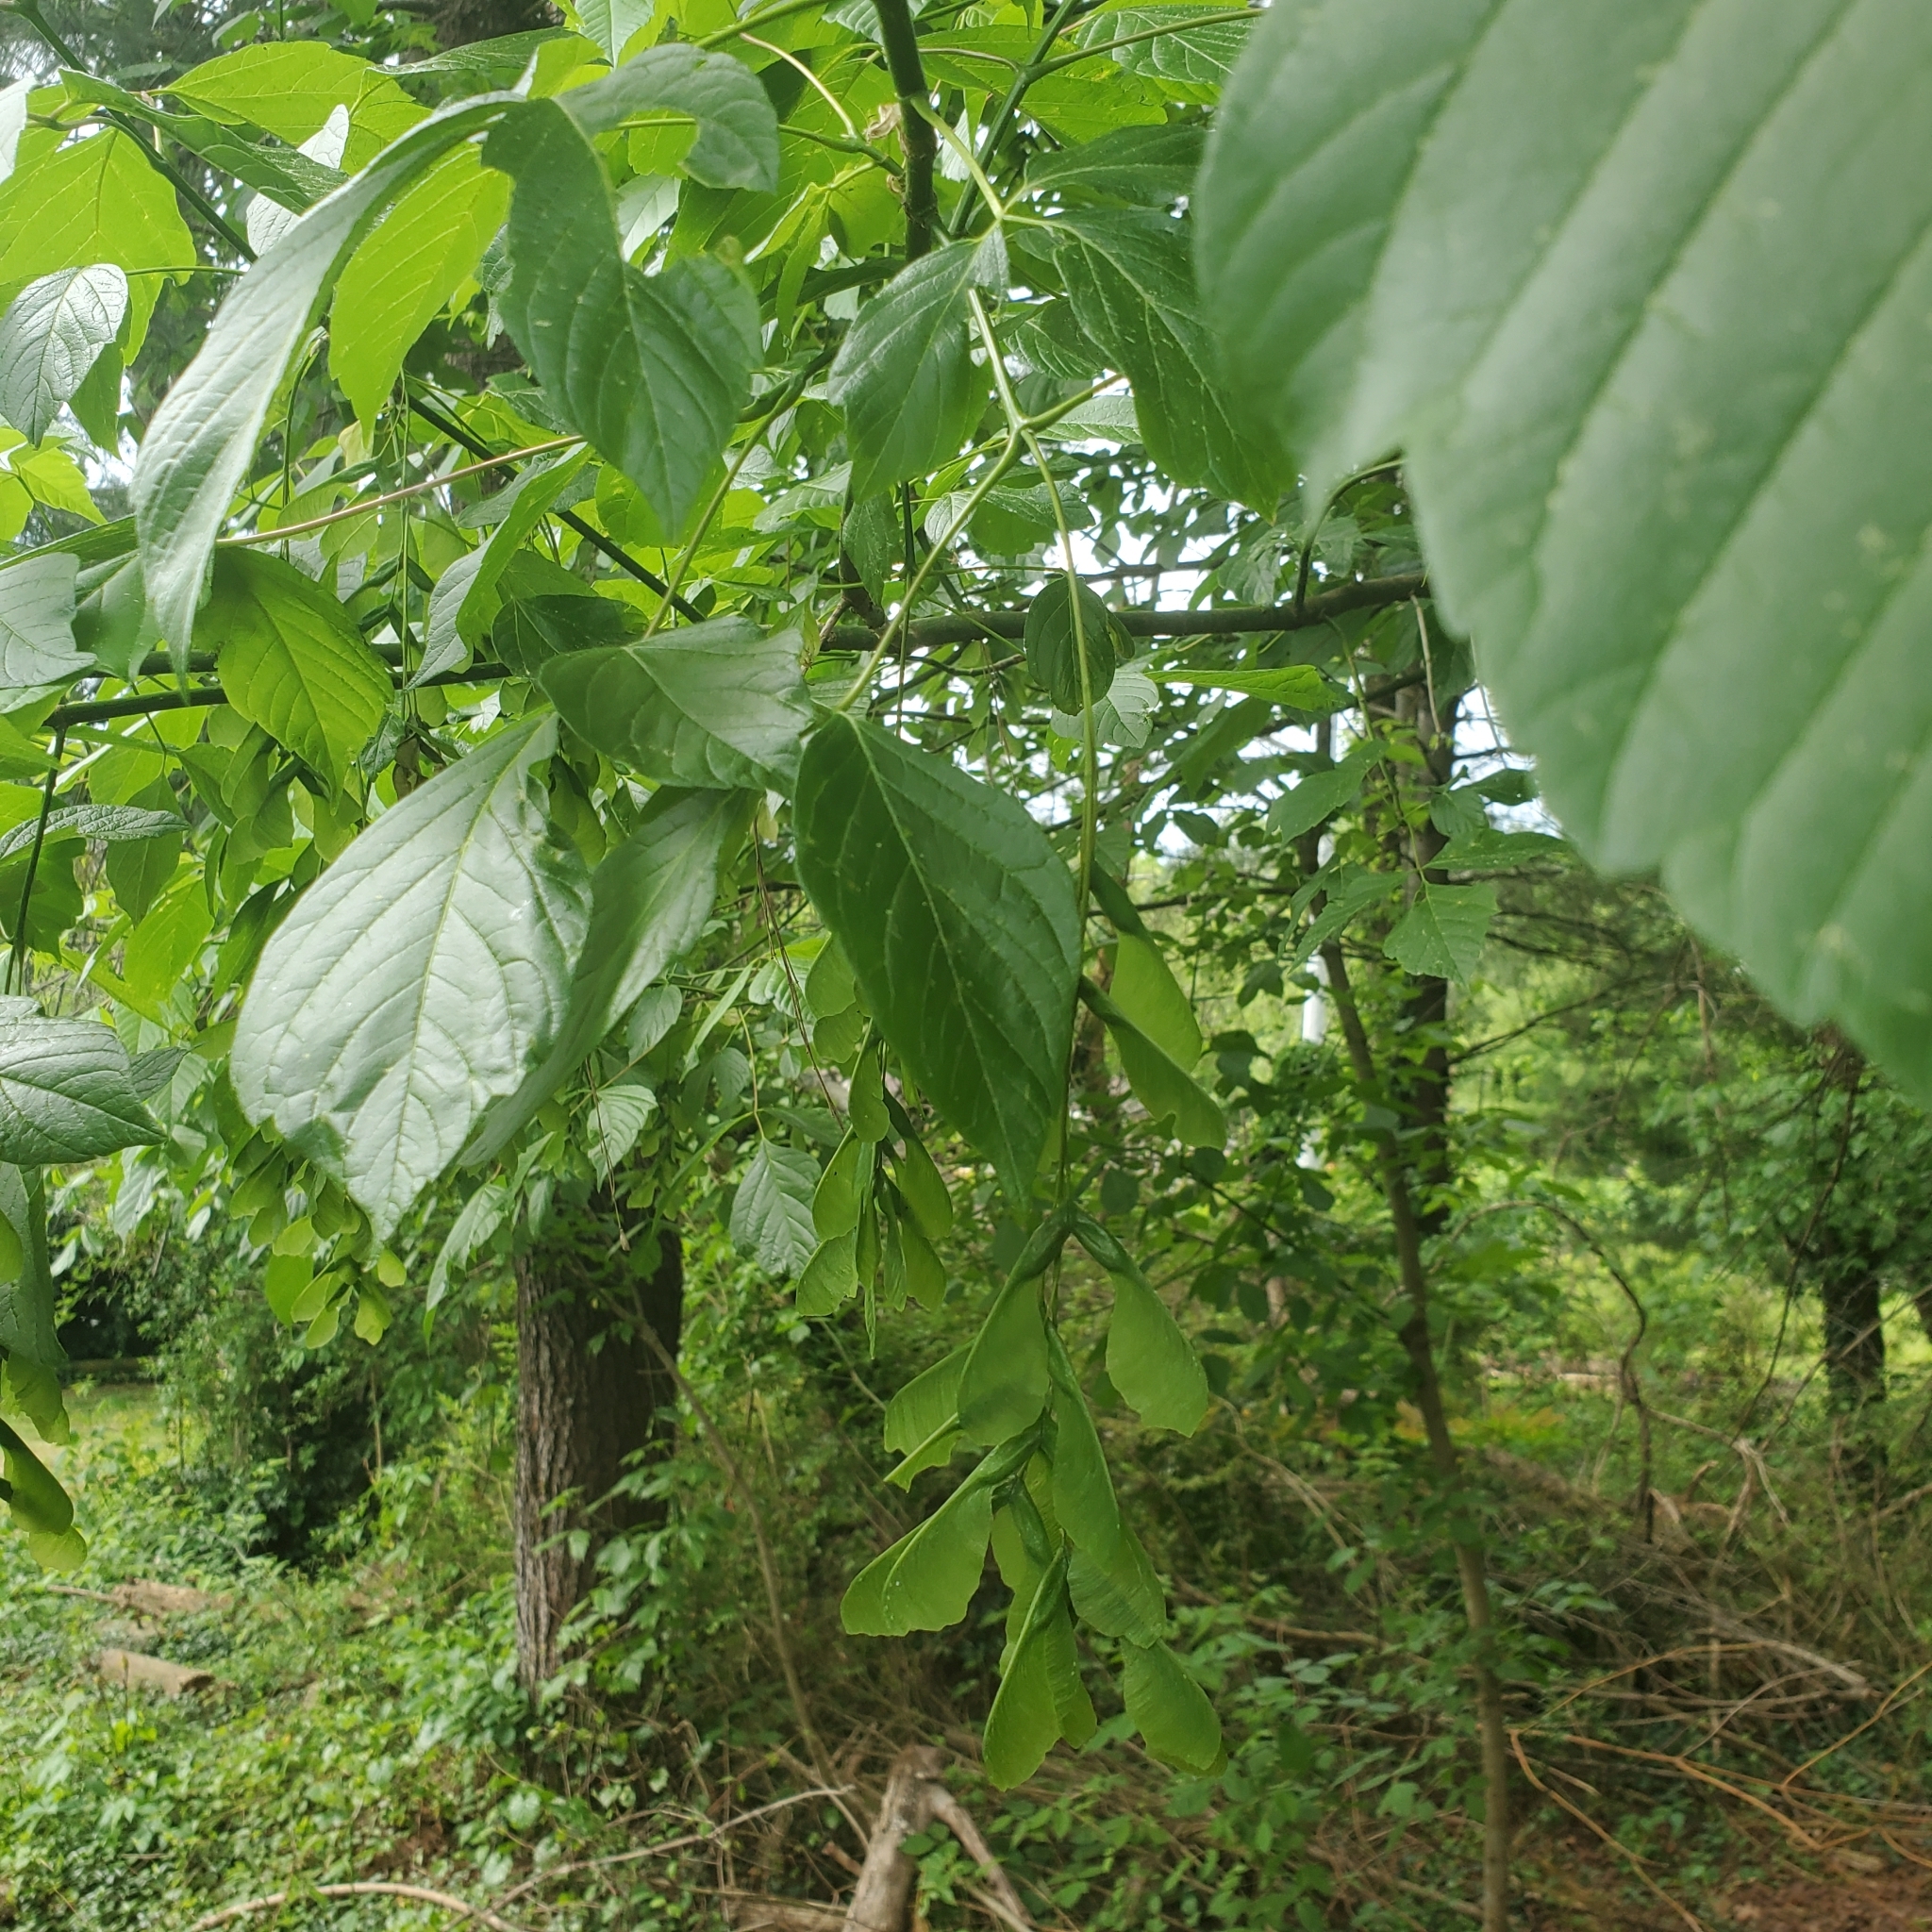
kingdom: Plantae
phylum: Tracheophyta
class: Magnoliopsida
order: Sapindales
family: Sapindaceae
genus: Acer
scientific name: Acer negundo
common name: Ashleaf maple
